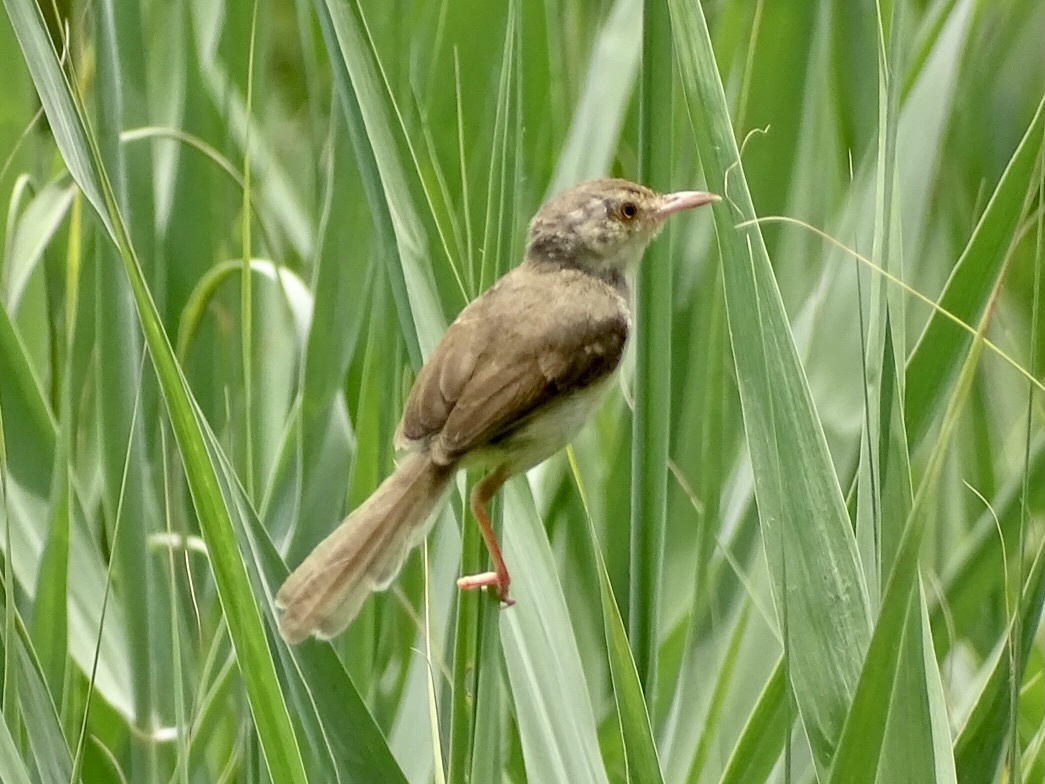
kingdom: Animalia
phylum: Chordata
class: Aves
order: Passeriformes
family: Cisticolidae
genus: Prinia
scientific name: Prinia inornata
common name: Plain prinia
